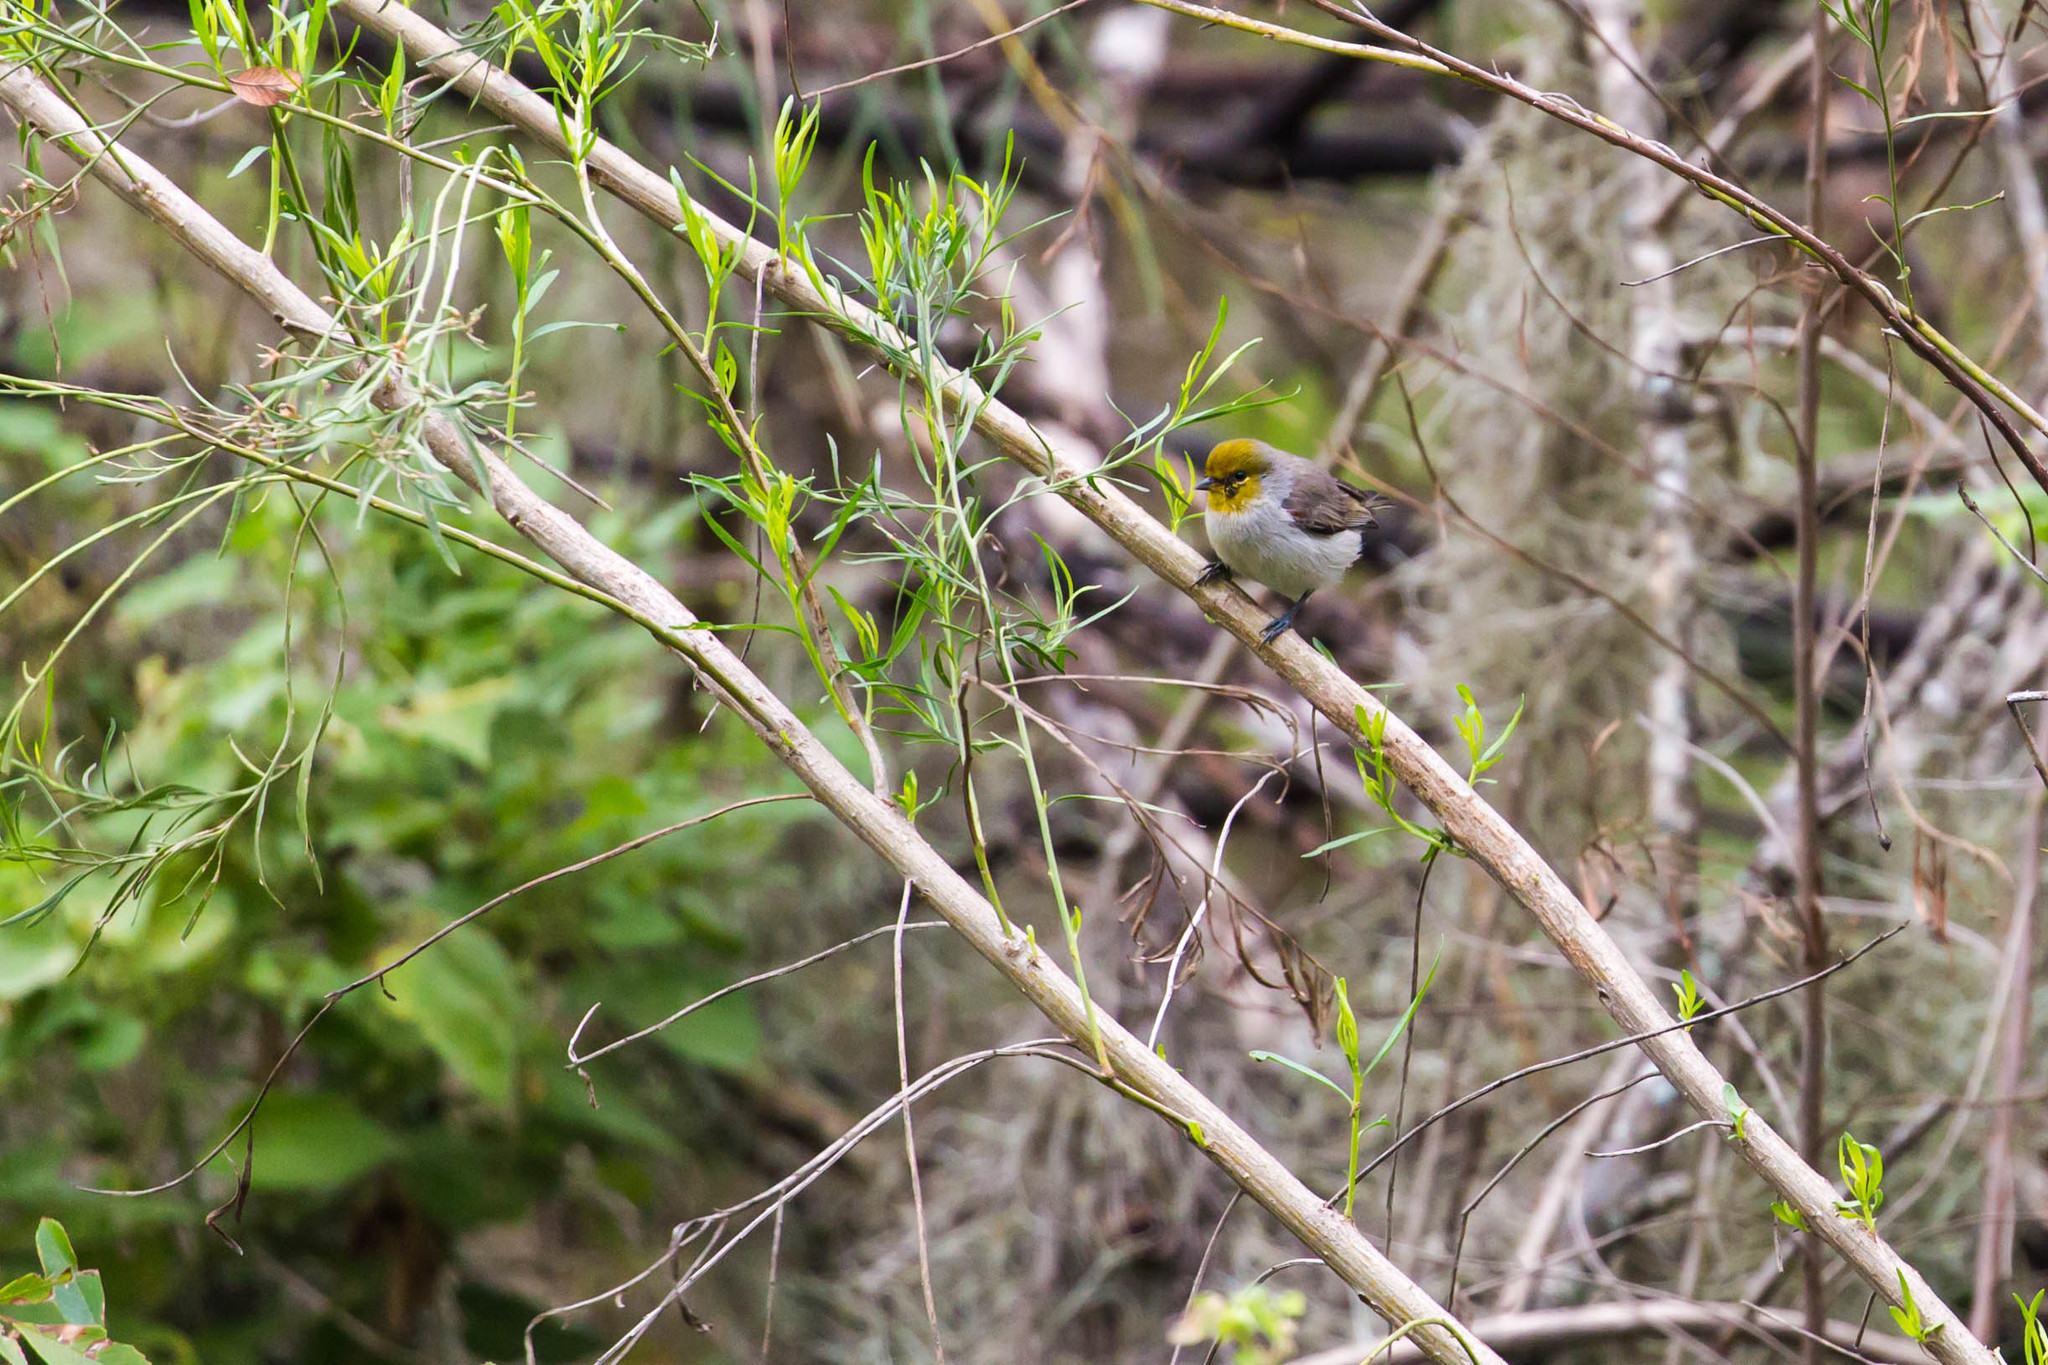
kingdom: Animalia
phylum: Chordata
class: Aves
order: Passeriformes
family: Remizidae
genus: Auriparus
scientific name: Auriparus flaviceps
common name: Verdin
